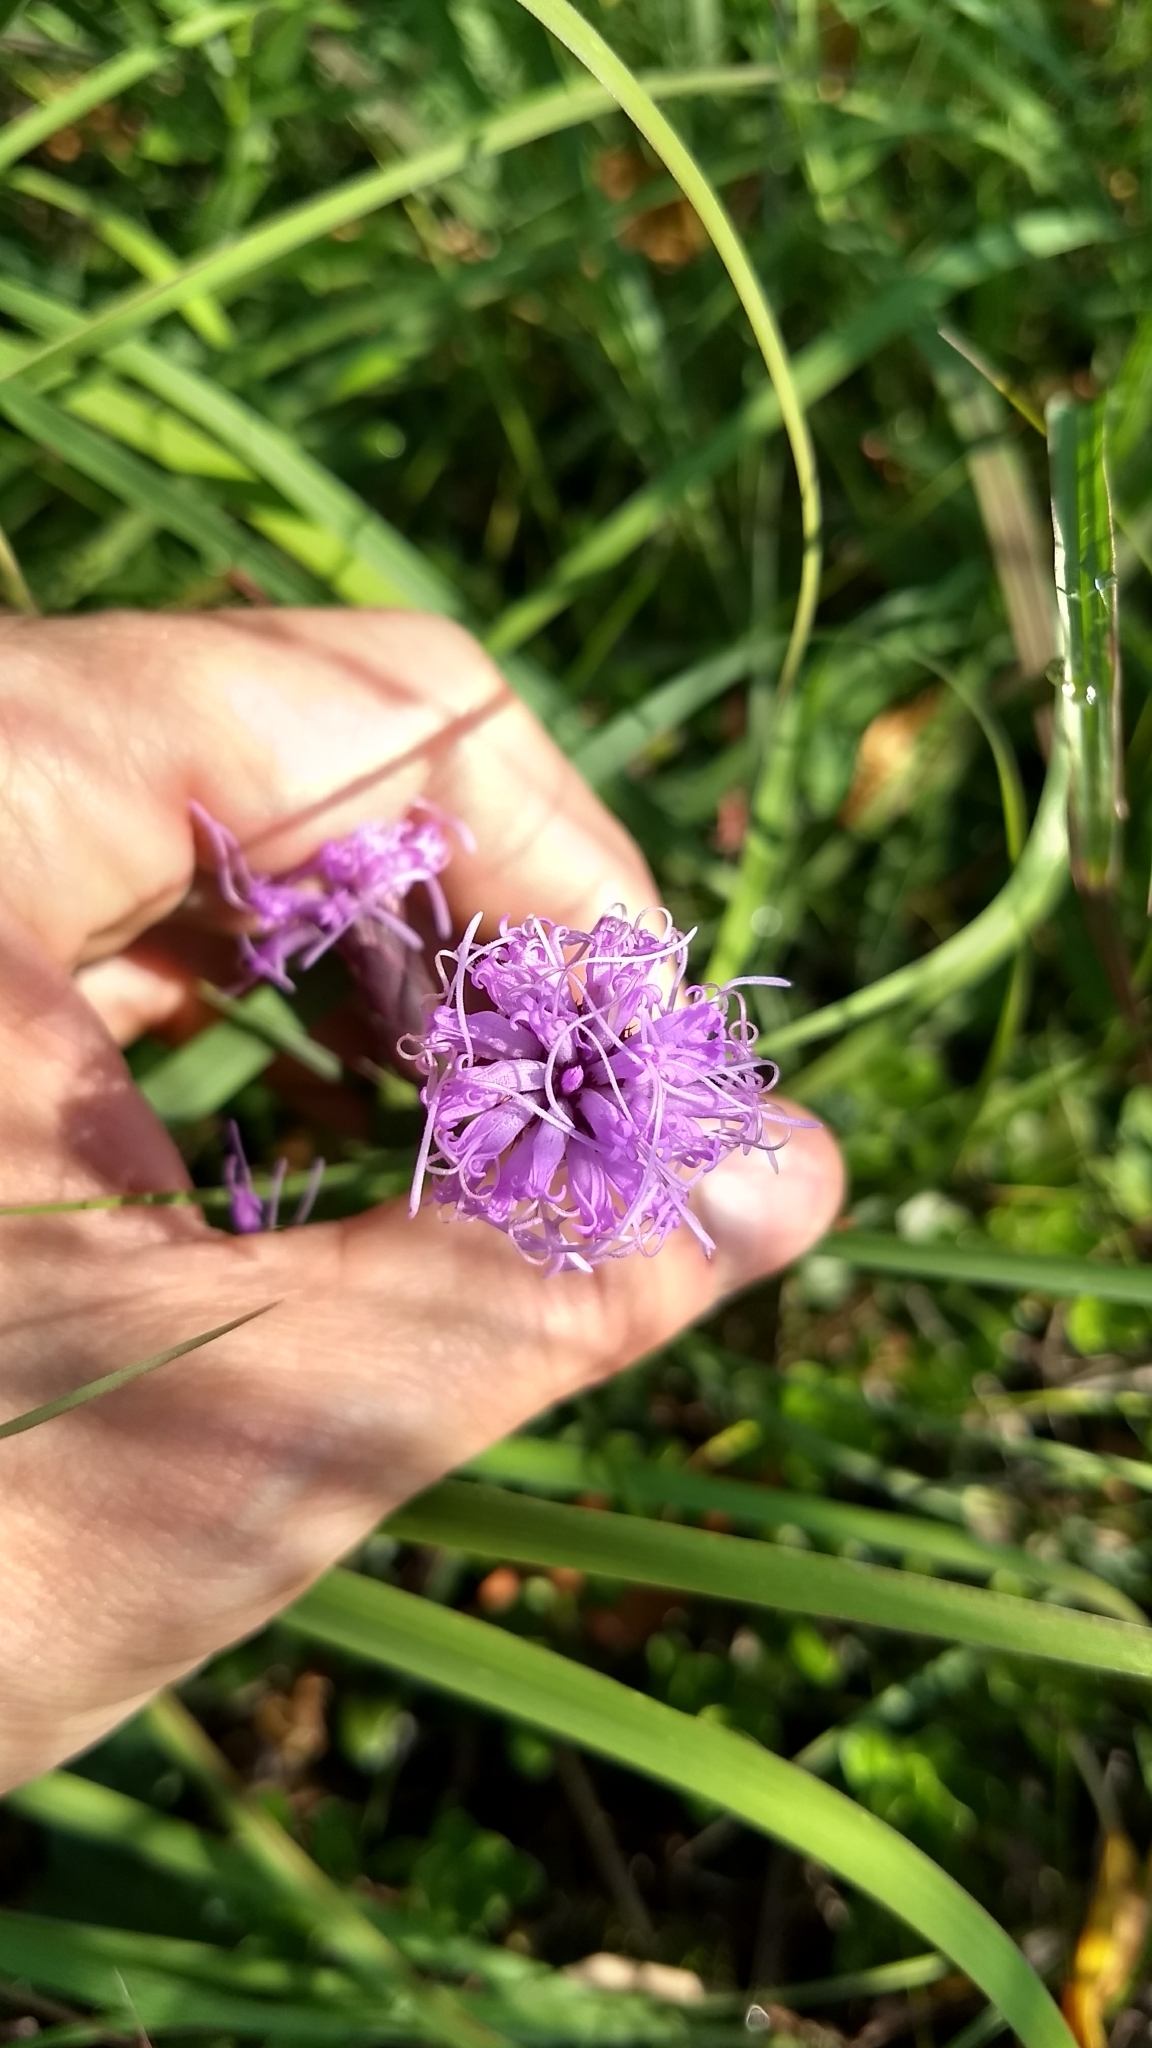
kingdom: Plantae
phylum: Tracheophyta
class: Magnoliopsida
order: Asterales
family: Asteraceae
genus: Liatris
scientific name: Liatris cylindracea
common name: Few-head blazingstar
